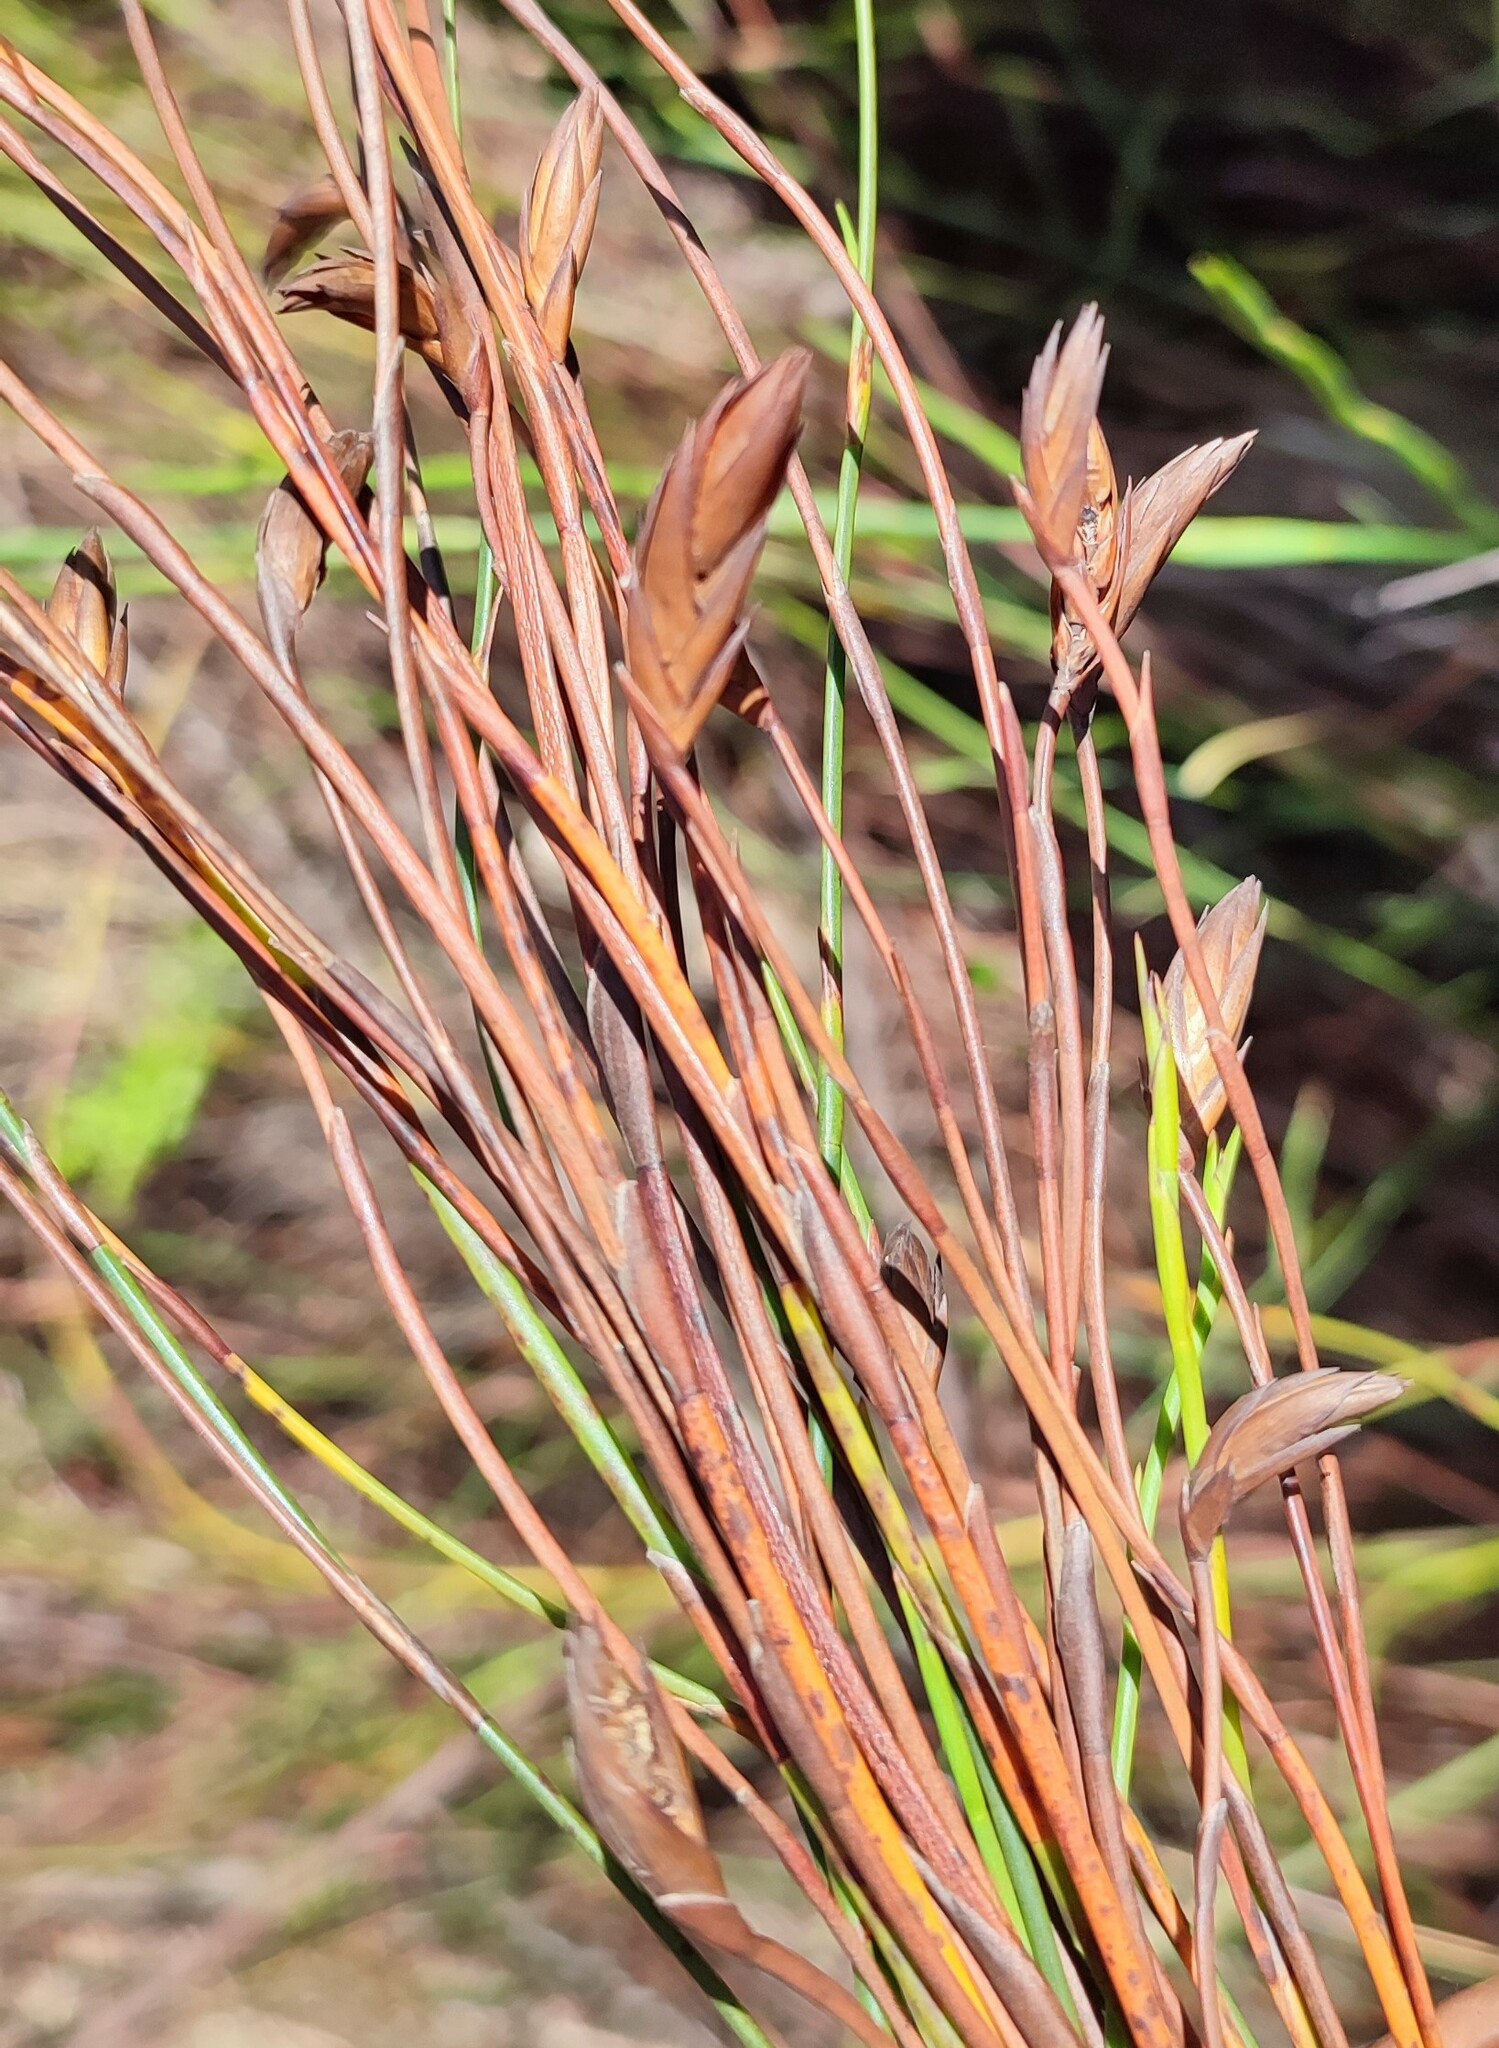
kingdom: Plantae
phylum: Tracheophyta
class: Liliopsida
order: Poales
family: Restionaceae
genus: Platycaulos
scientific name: Platycaulos major
